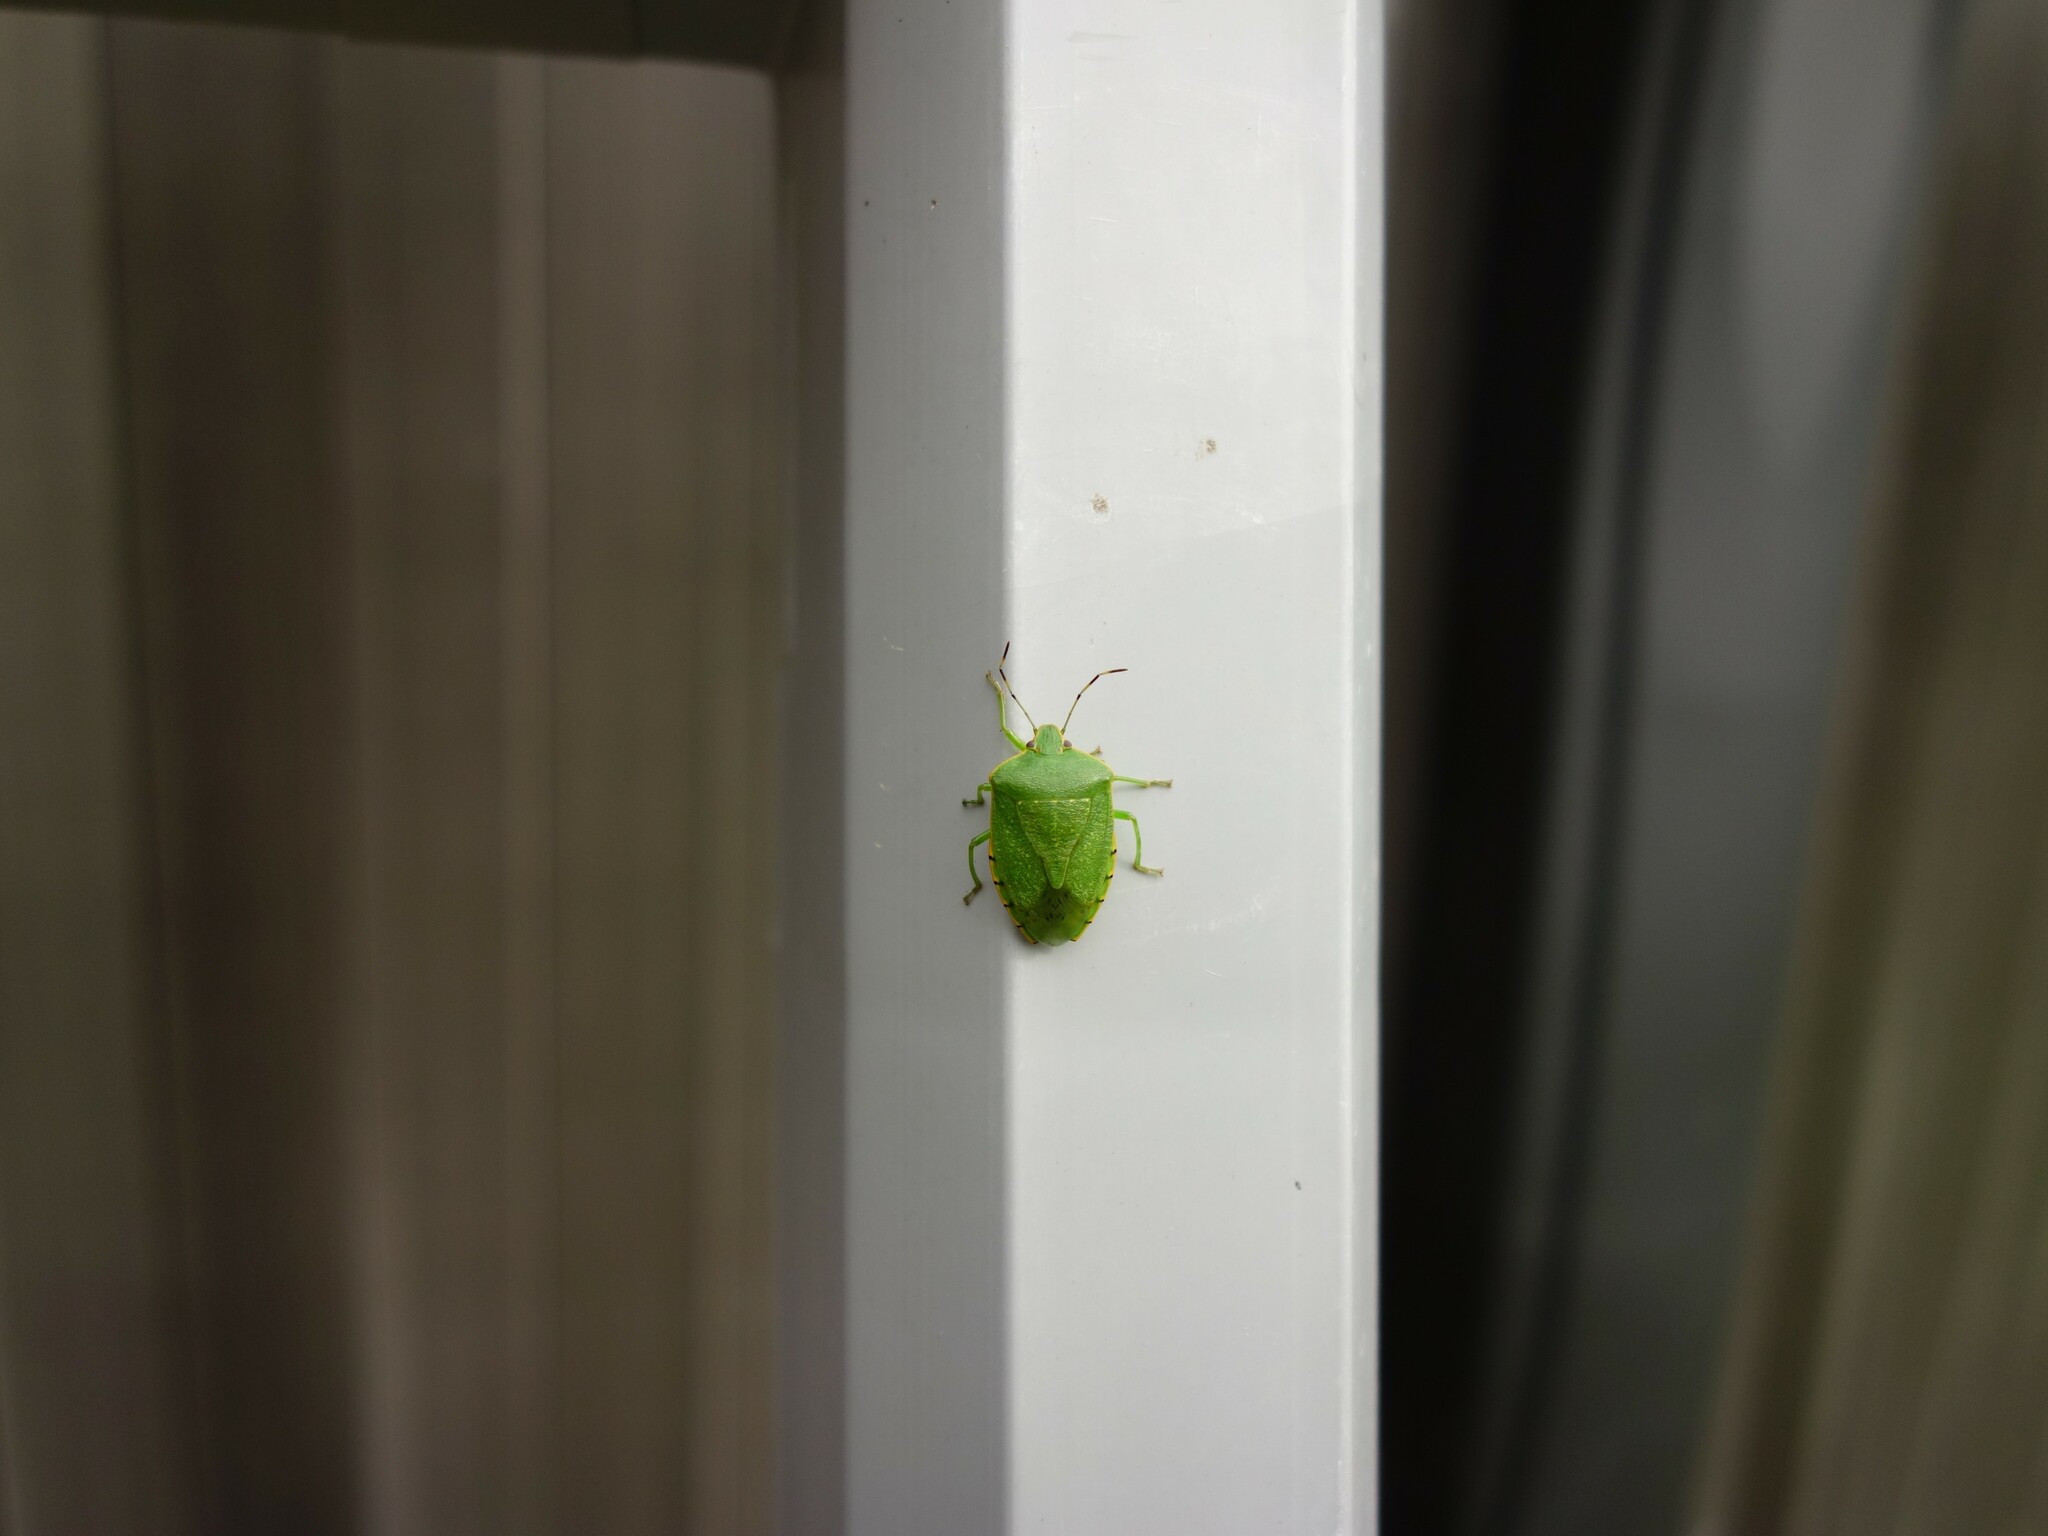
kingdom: Animalia
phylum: Arthropoda
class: Insecta
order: Hemiptera
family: Pentatomidae
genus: Chinavia
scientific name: Chinavia hilaris
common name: Green stink bug
